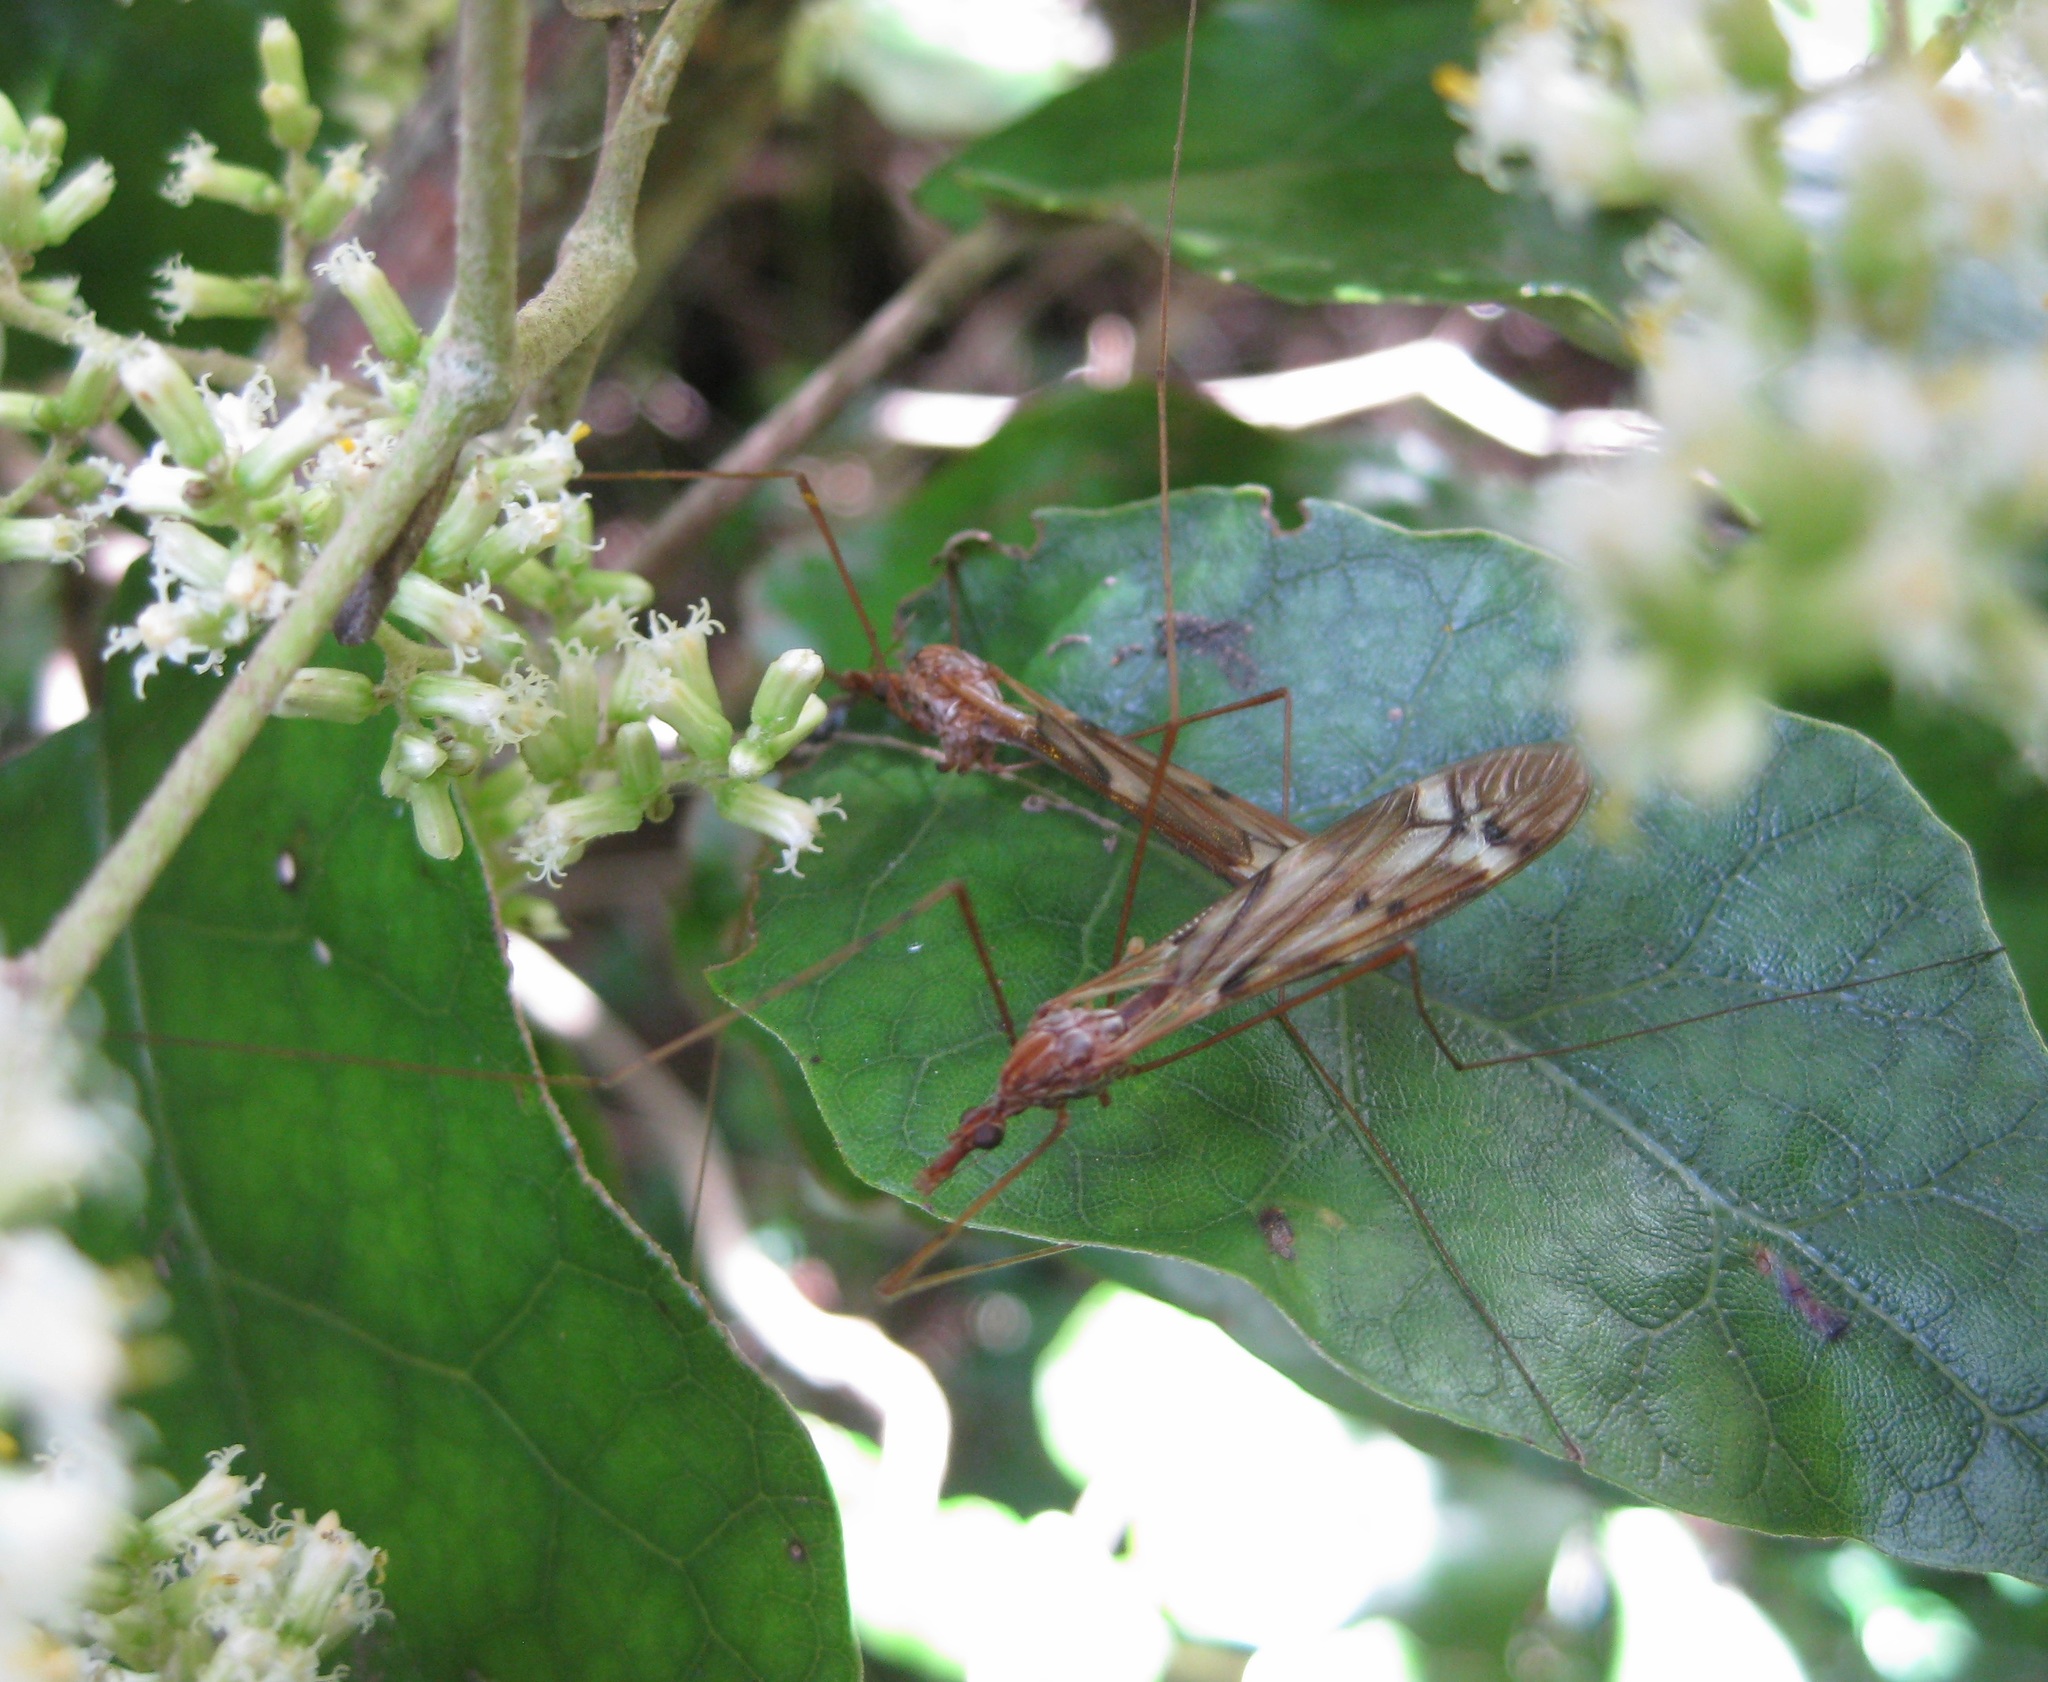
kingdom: Animalia
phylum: Arthropoda
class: Insecta
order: Diptera
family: Tipulidae
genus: Zelandotipula
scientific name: Zelandotipula fulva
